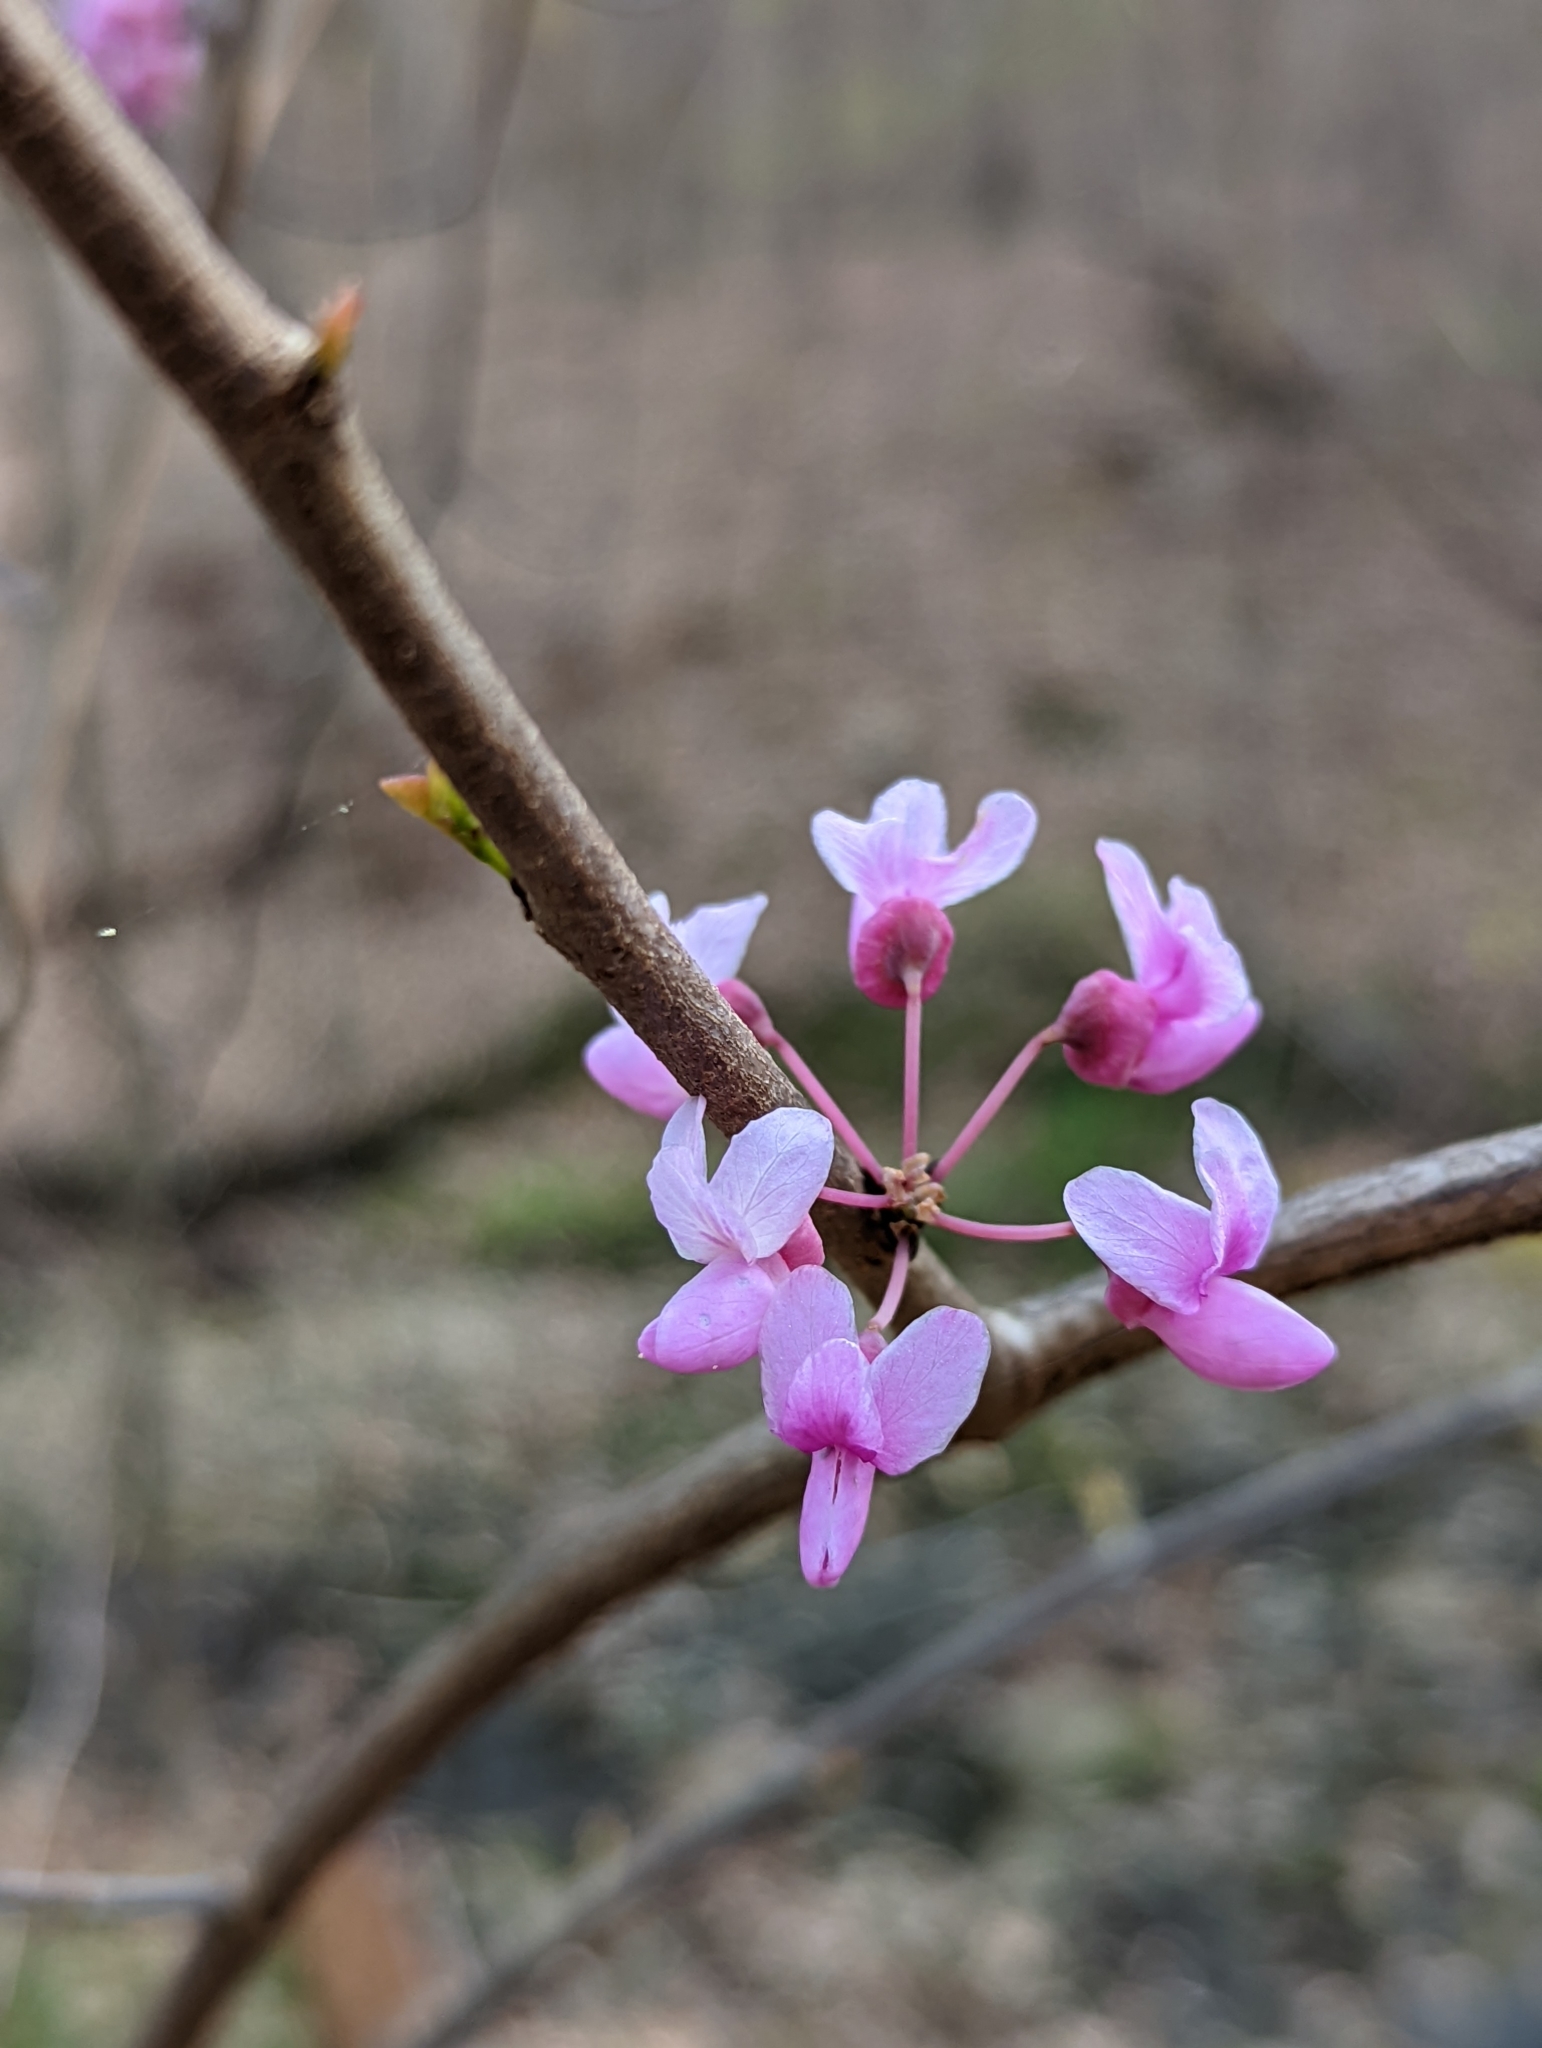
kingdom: Plantae
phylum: Tracheophyta
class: Magnoliopsida
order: Fabales
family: Fabaceae
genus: Cercis
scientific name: Cercis canadensis
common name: Eastern redbud
